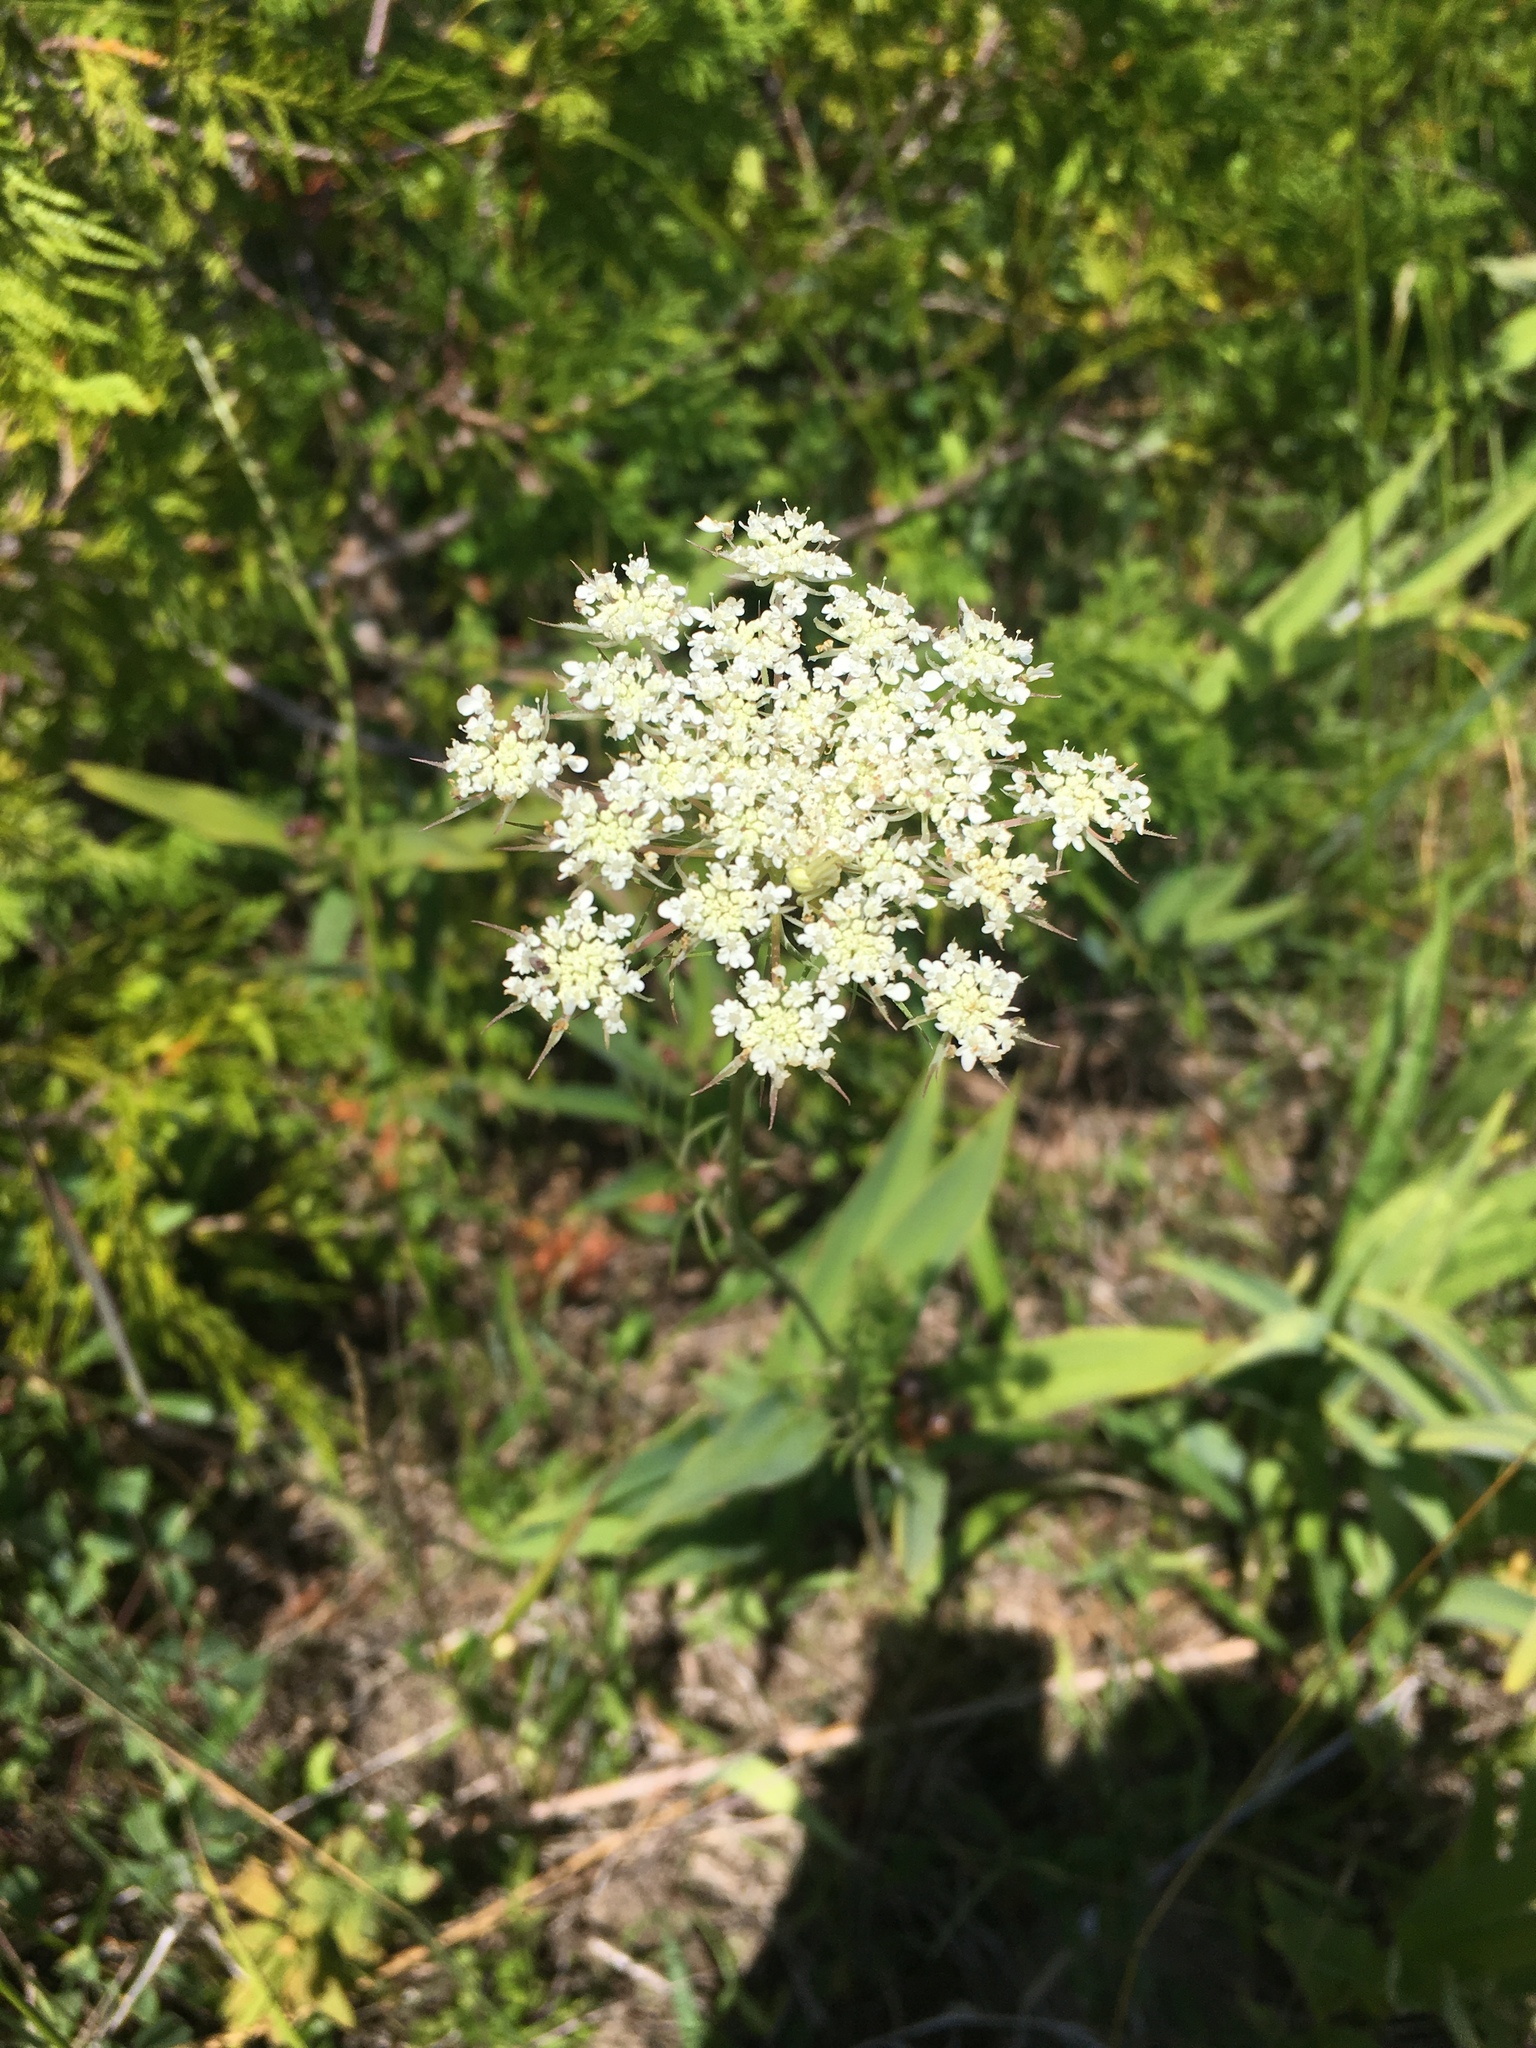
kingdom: Plantae
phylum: Tracheophyta
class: Magnoliopsida
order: Apiales
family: Apiaceae
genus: Daucus
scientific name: Daucus carota
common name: Wild carrot
